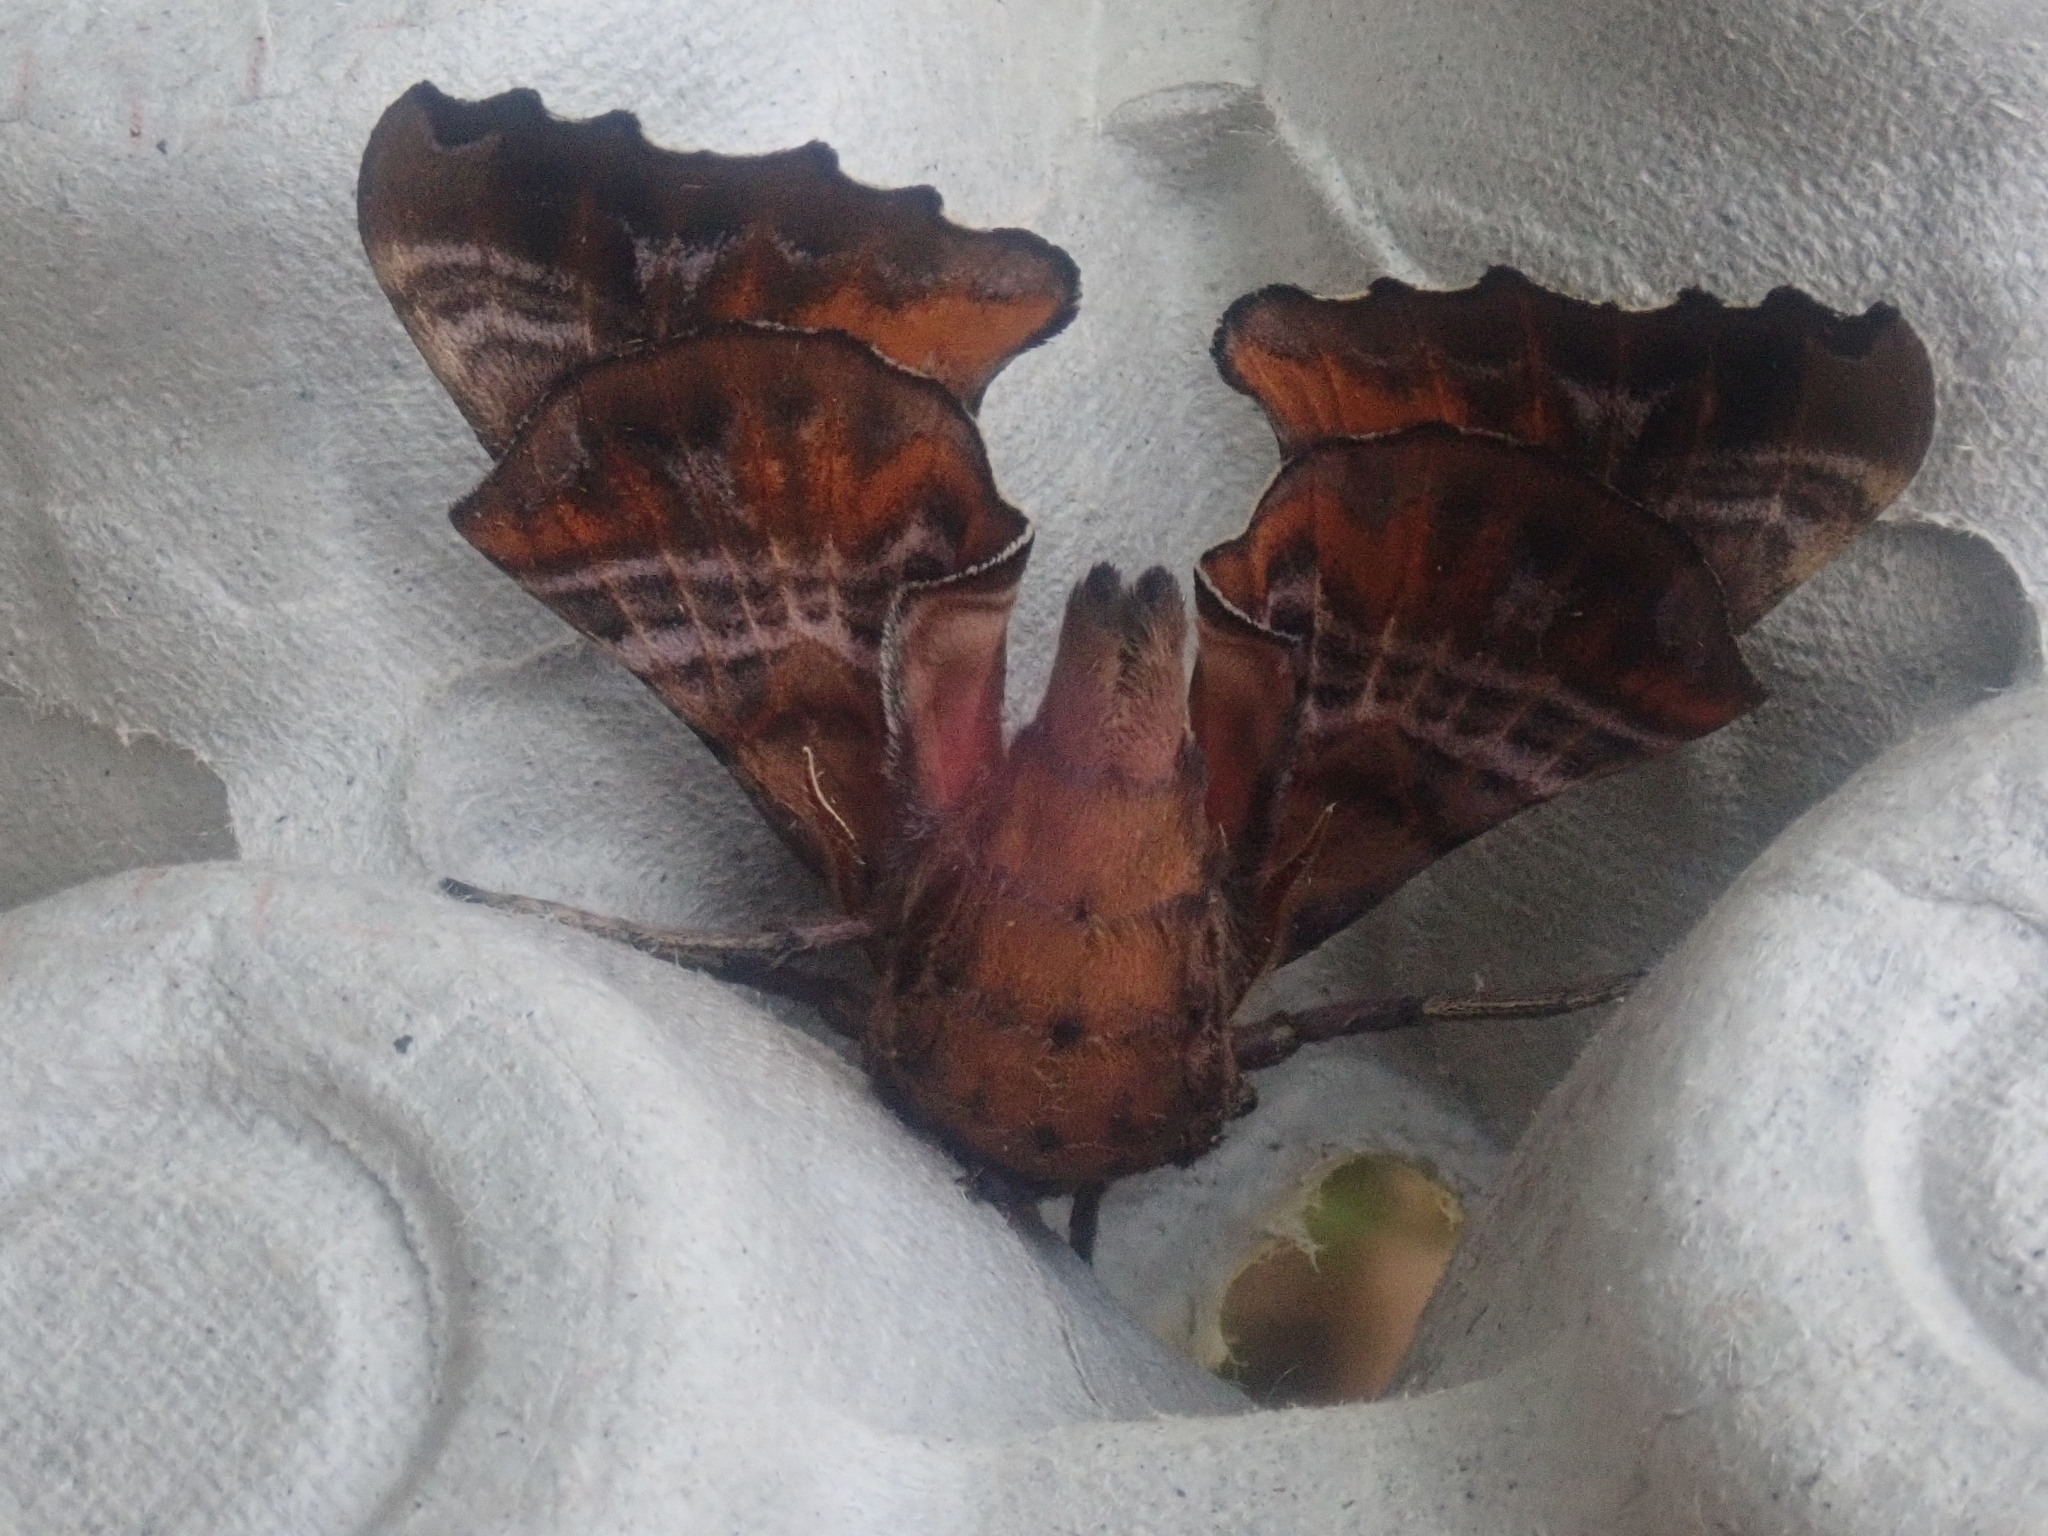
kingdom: Animalia
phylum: Arthropoda
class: Insecta
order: Lepidoptera
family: Sphingidae
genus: Paonias
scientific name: Paonias excaecata
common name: Blind-eyed sphinx
